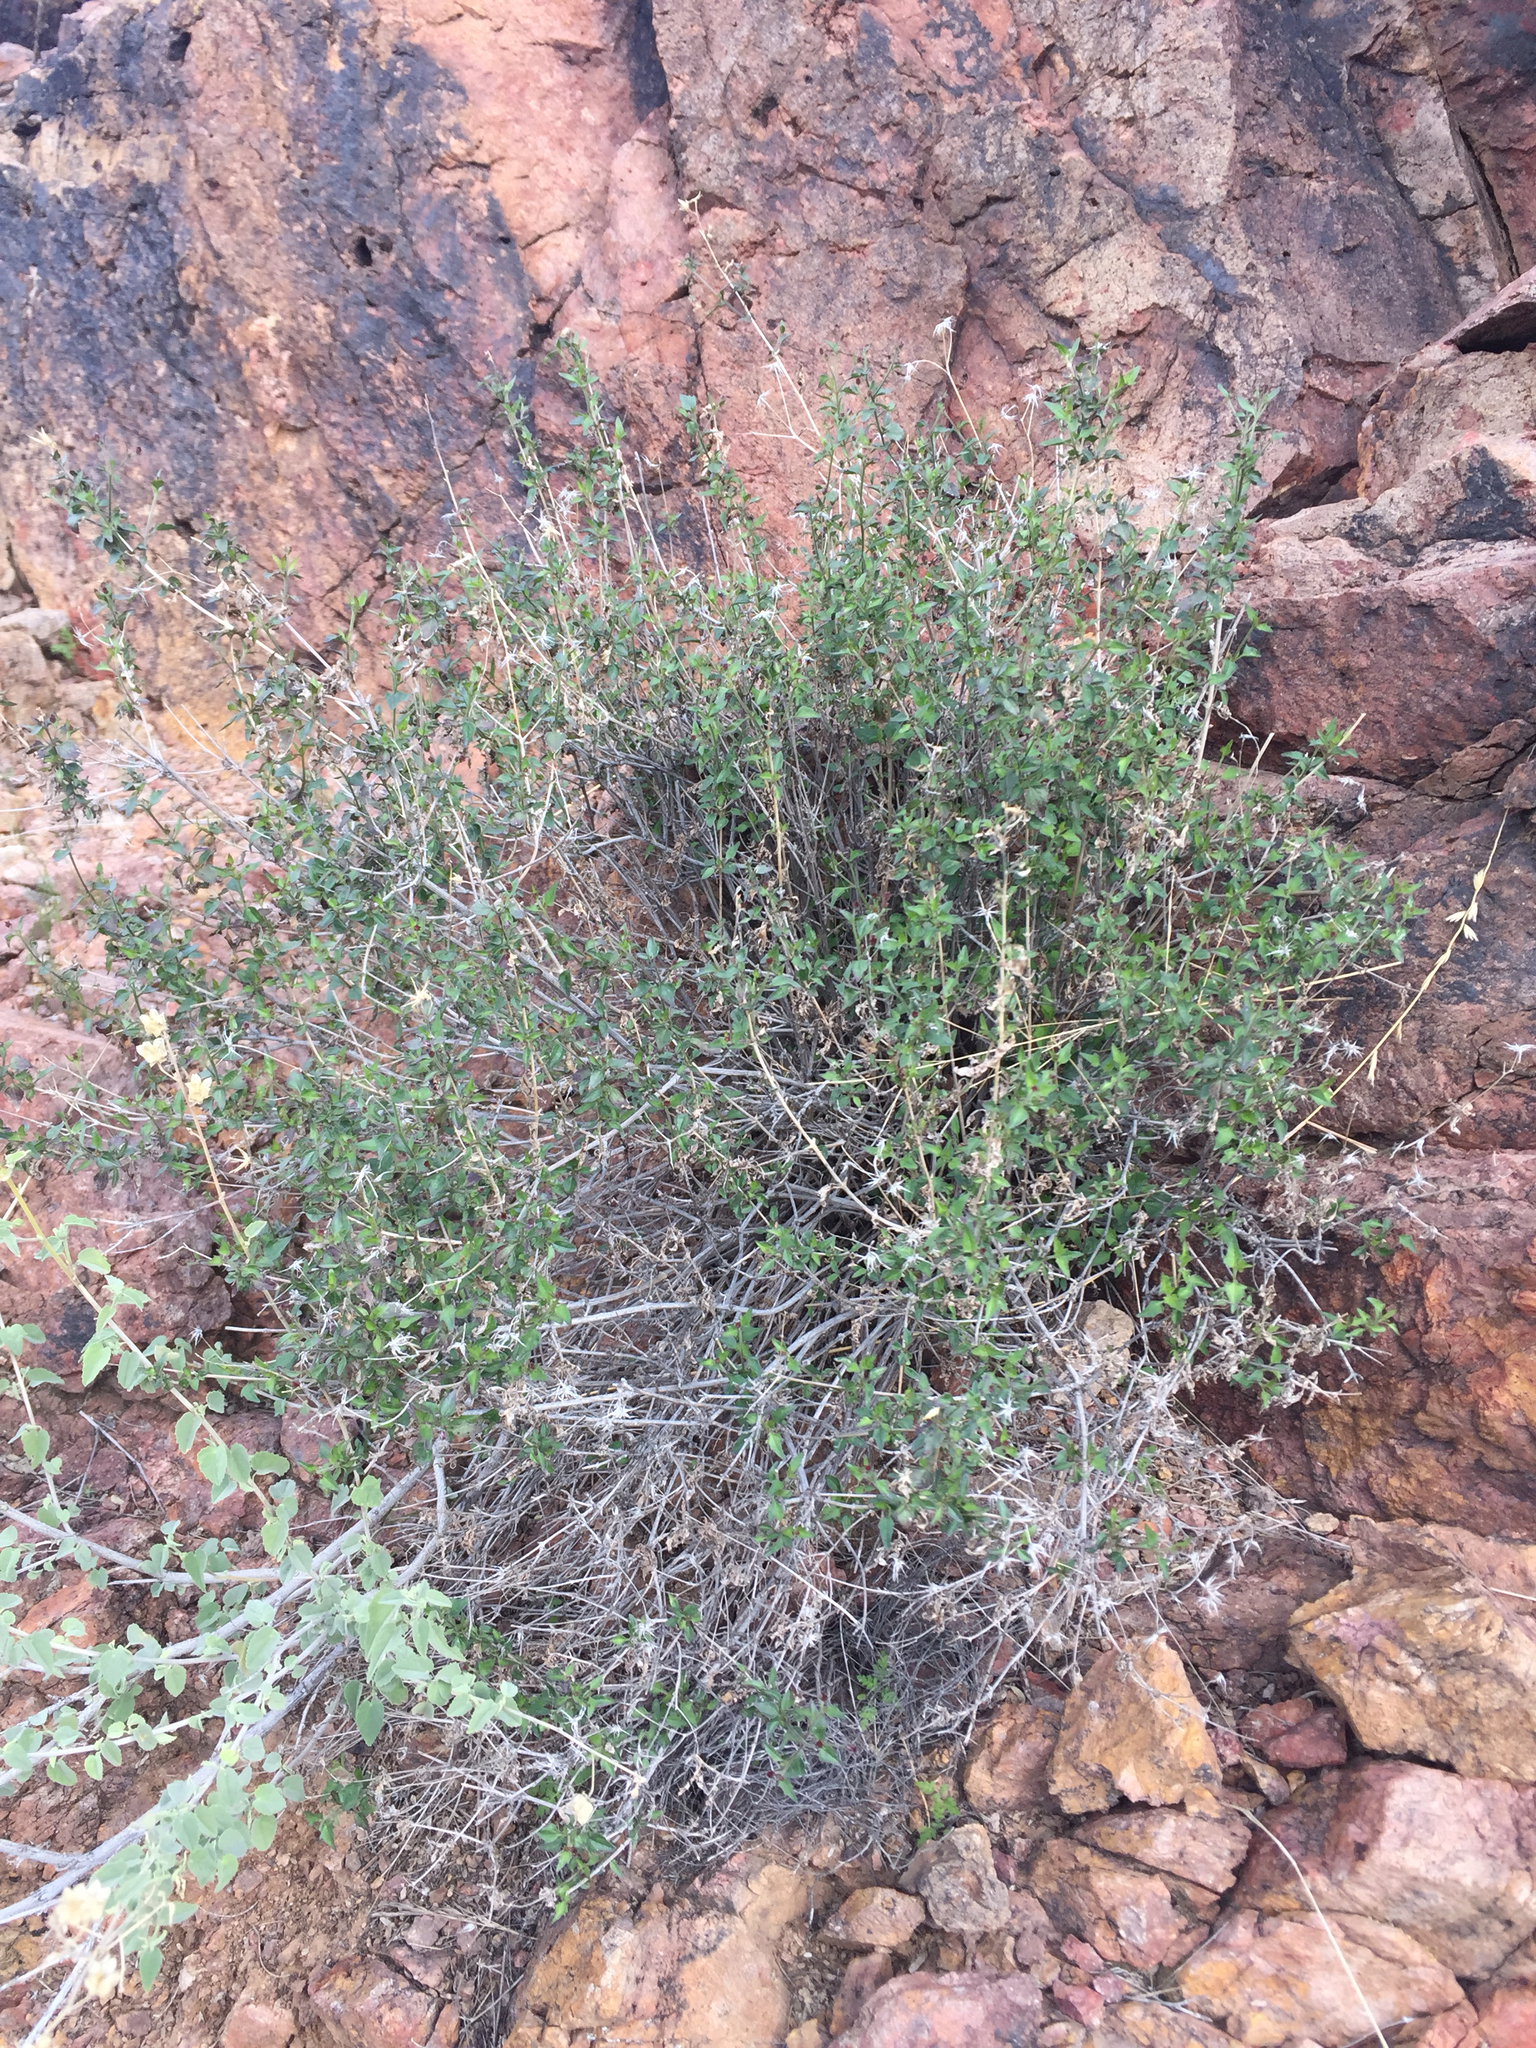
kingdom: Plantae
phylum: Tracheophyta
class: Magnoliopsida
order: Asterales
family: Asteraceae
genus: Brickellia
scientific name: Brickellia coulteri
